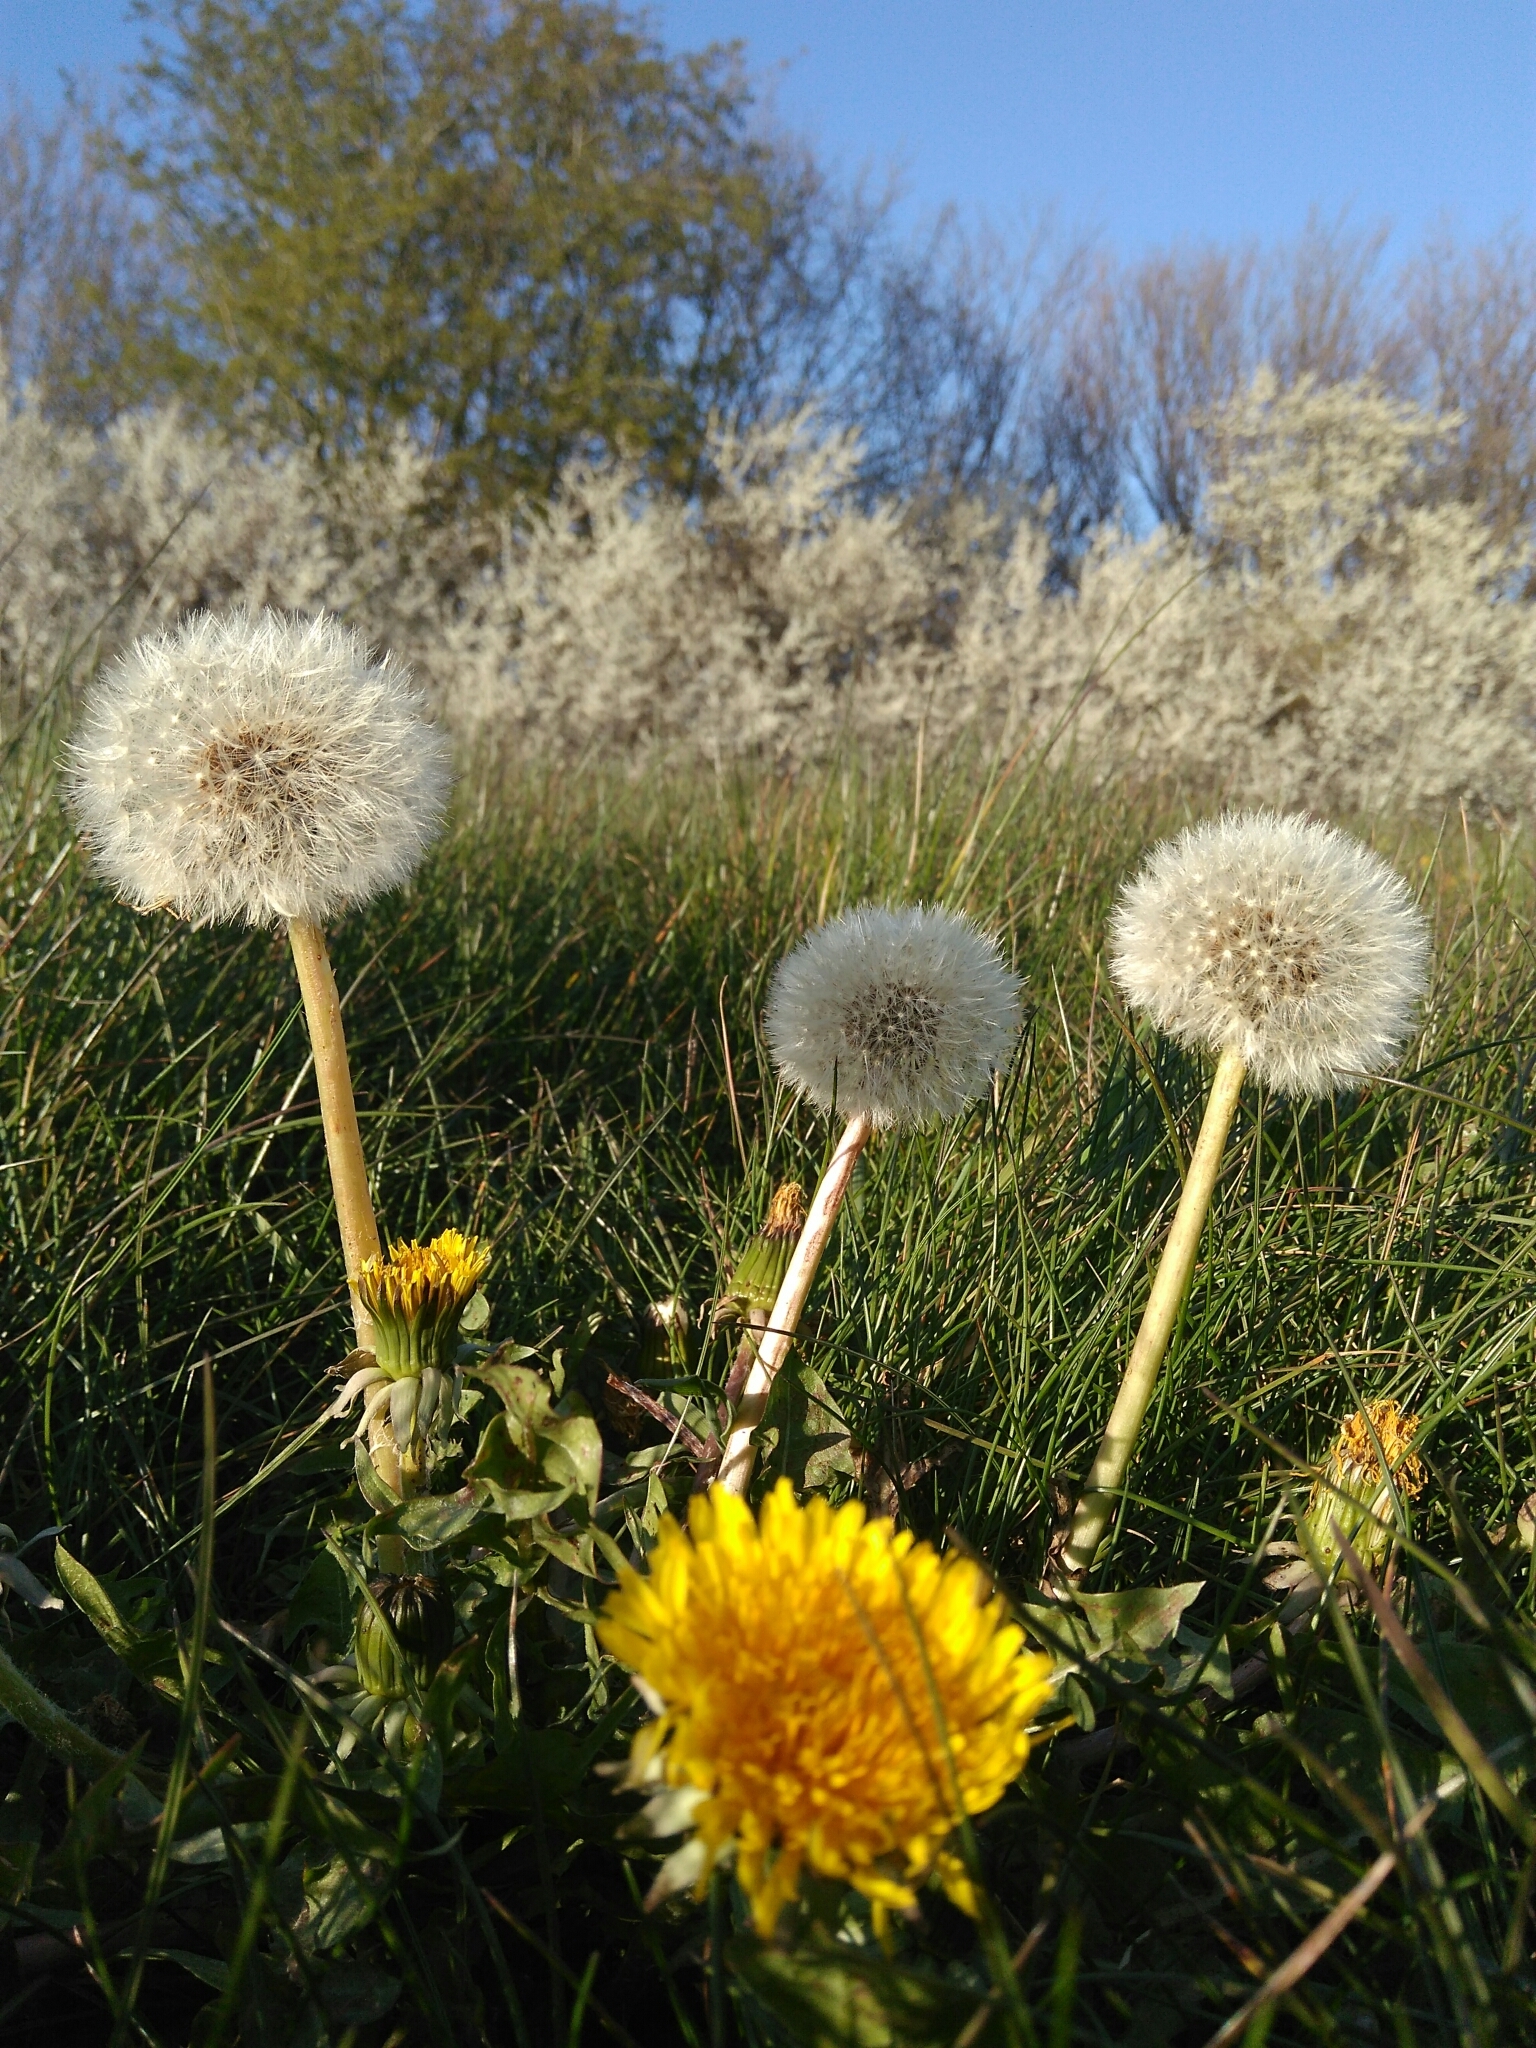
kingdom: Plantae
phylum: Tracheophyta
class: Magnoliopsida
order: Asterales
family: Asteraceae
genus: Taraxacum
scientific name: Taraxacum officinale
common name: Common dandelion
